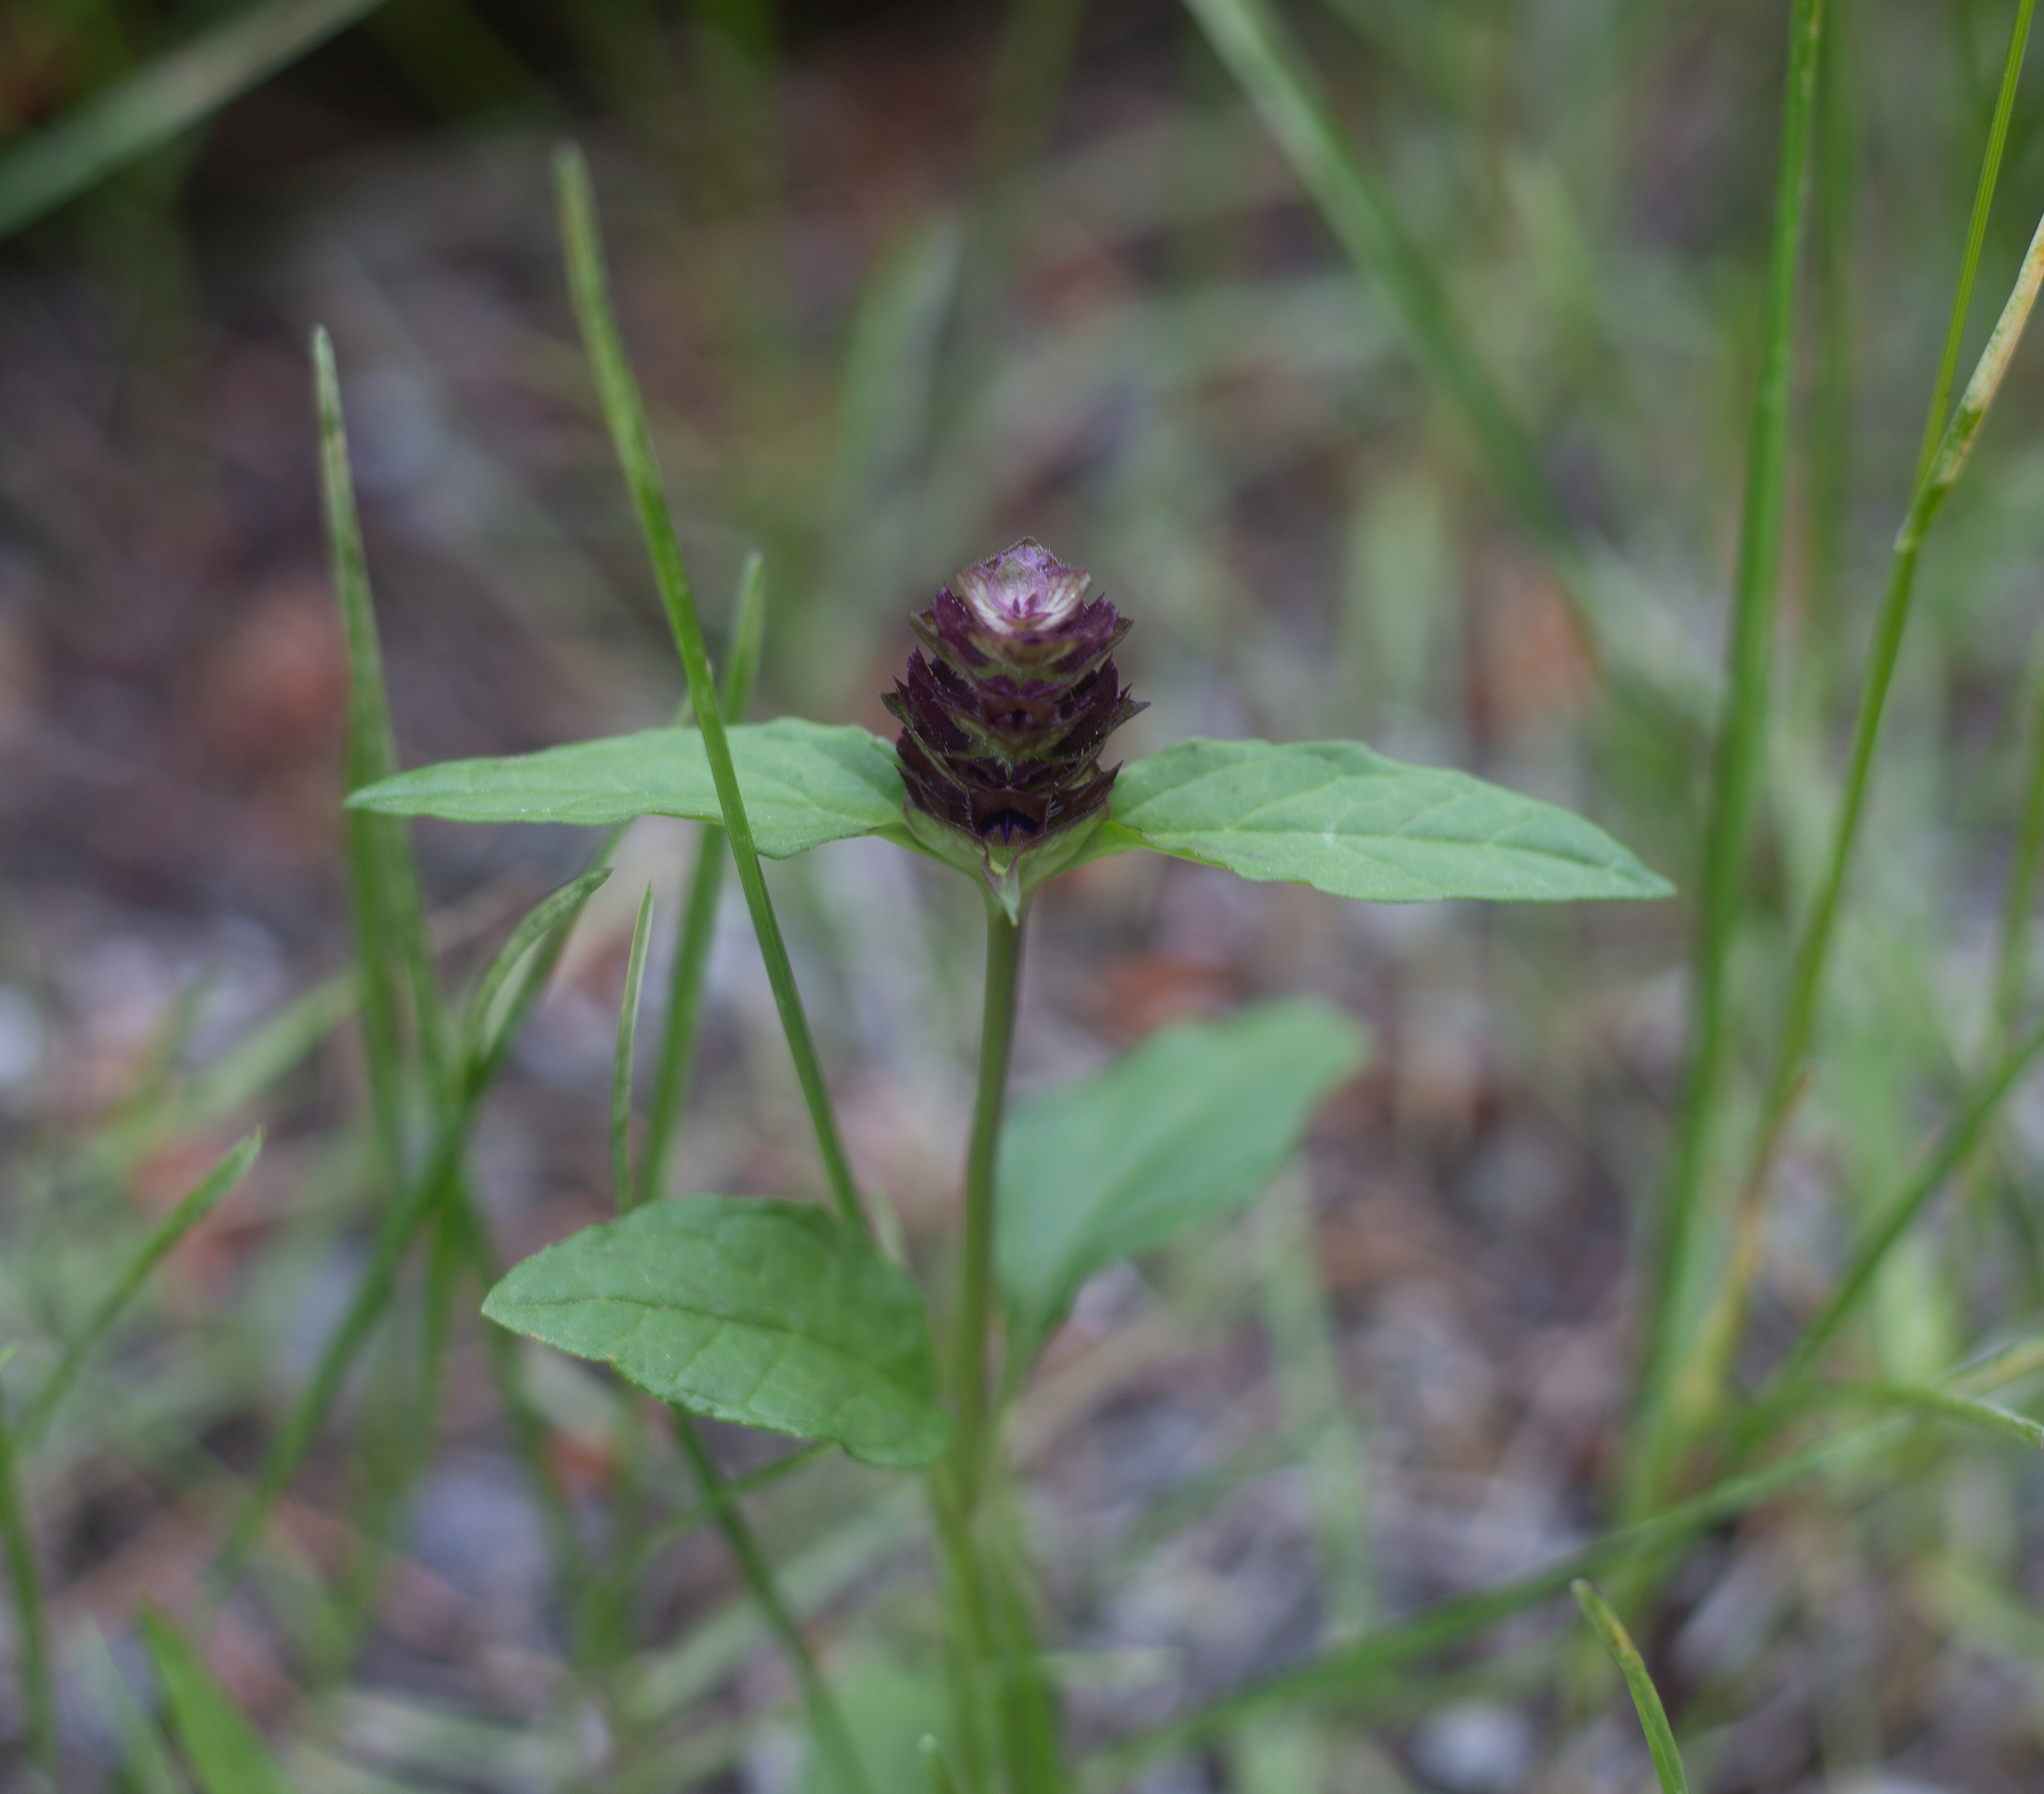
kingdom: Plantae
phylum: Tracheophyta
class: Magnoliopsida
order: Lamiales
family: Lamiaceae
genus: Prunella
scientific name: Prunella vulgaris
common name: Heal-all
